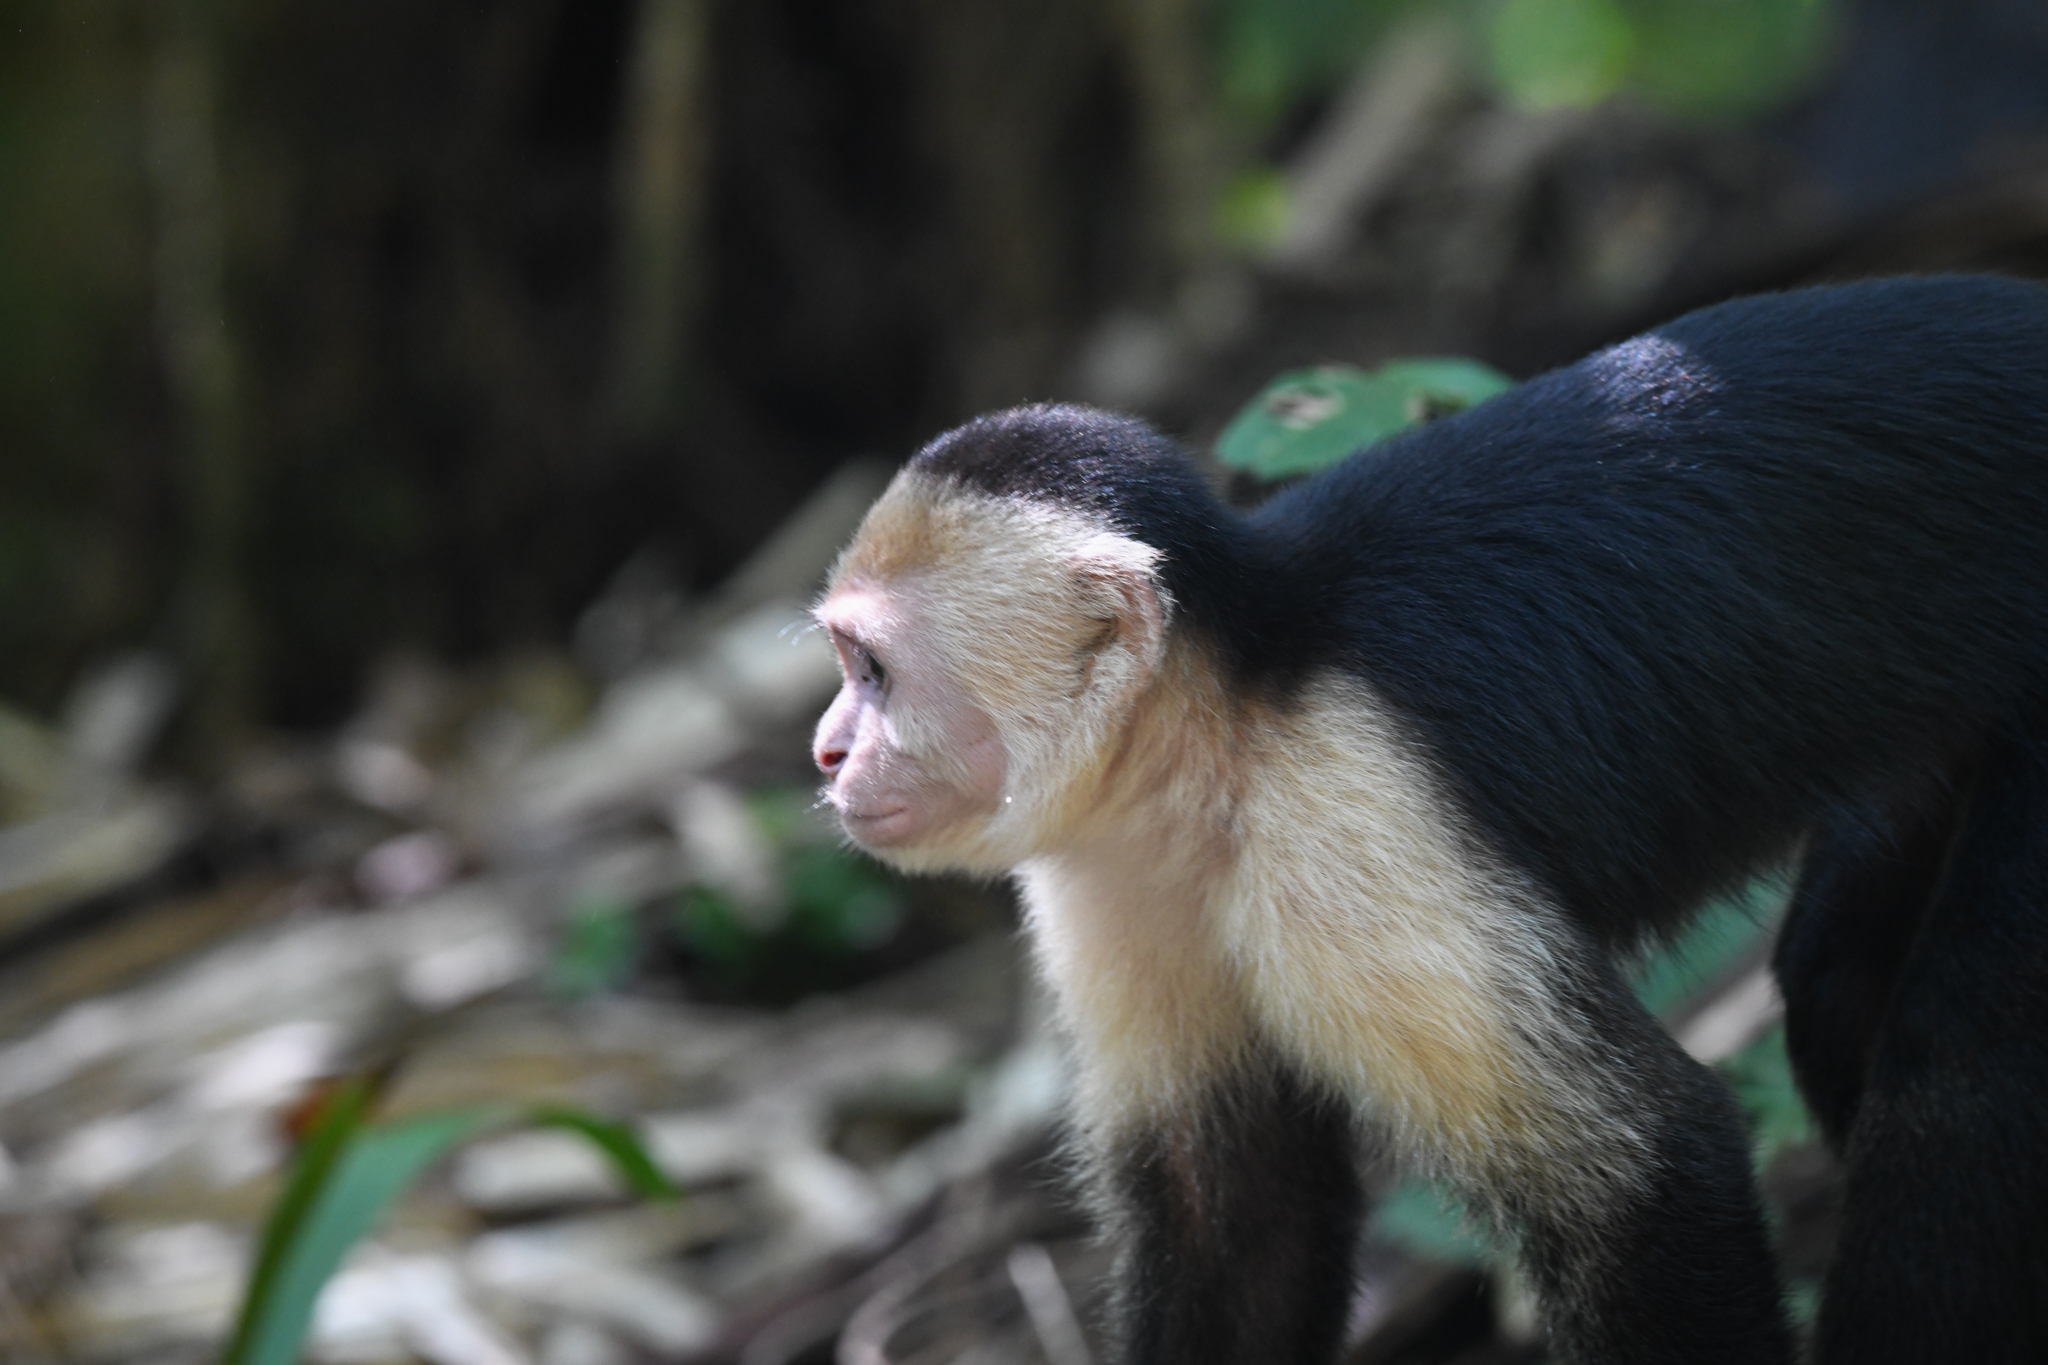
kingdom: Animalia
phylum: Chordata
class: Mammalia
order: Primates
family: Cebidae
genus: Cebus
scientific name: Cebus imitator
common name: Panamanian white-faced capuchin
